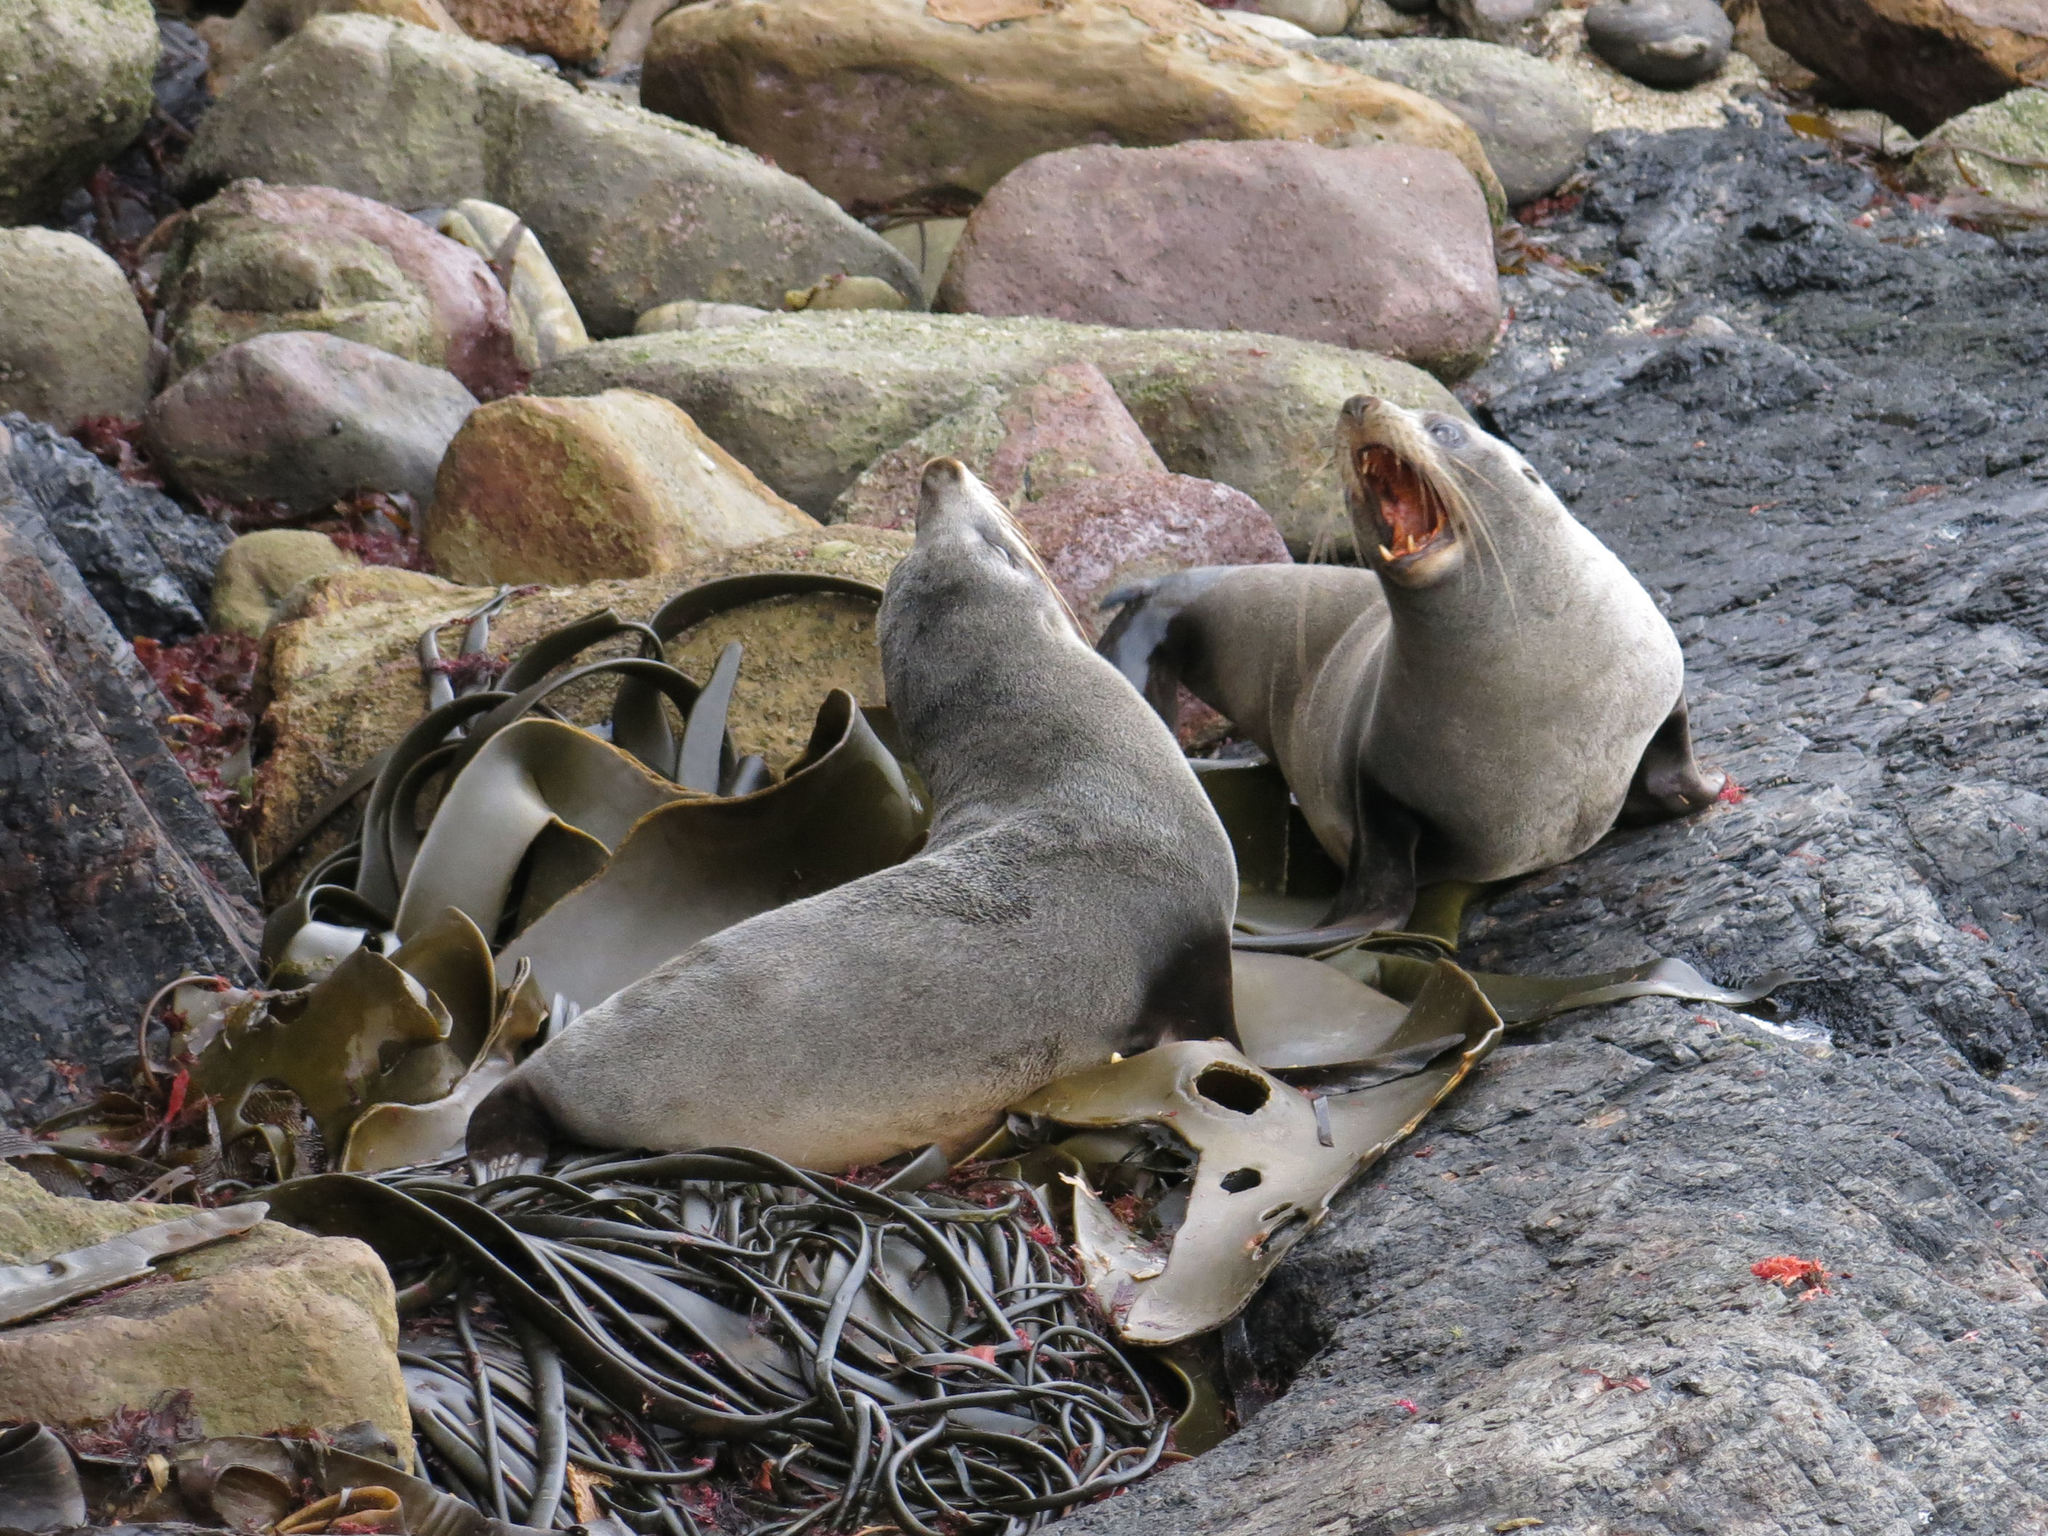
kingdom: Animalia
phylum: Chordata
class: Mammalia
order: Carnivora
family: Otariidae
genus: Arctocephalus
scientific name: Arctocephalus forsteri
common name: New zealand fur seal
